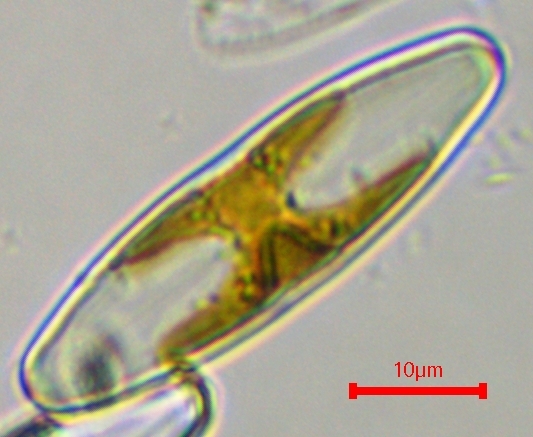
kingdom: Chromista
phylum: Ochrophyta
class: Bacillariophyceae
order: Cymbellales
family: Anomoeoneidaceae
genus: Staurophora
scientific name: Staurophora columbiana
